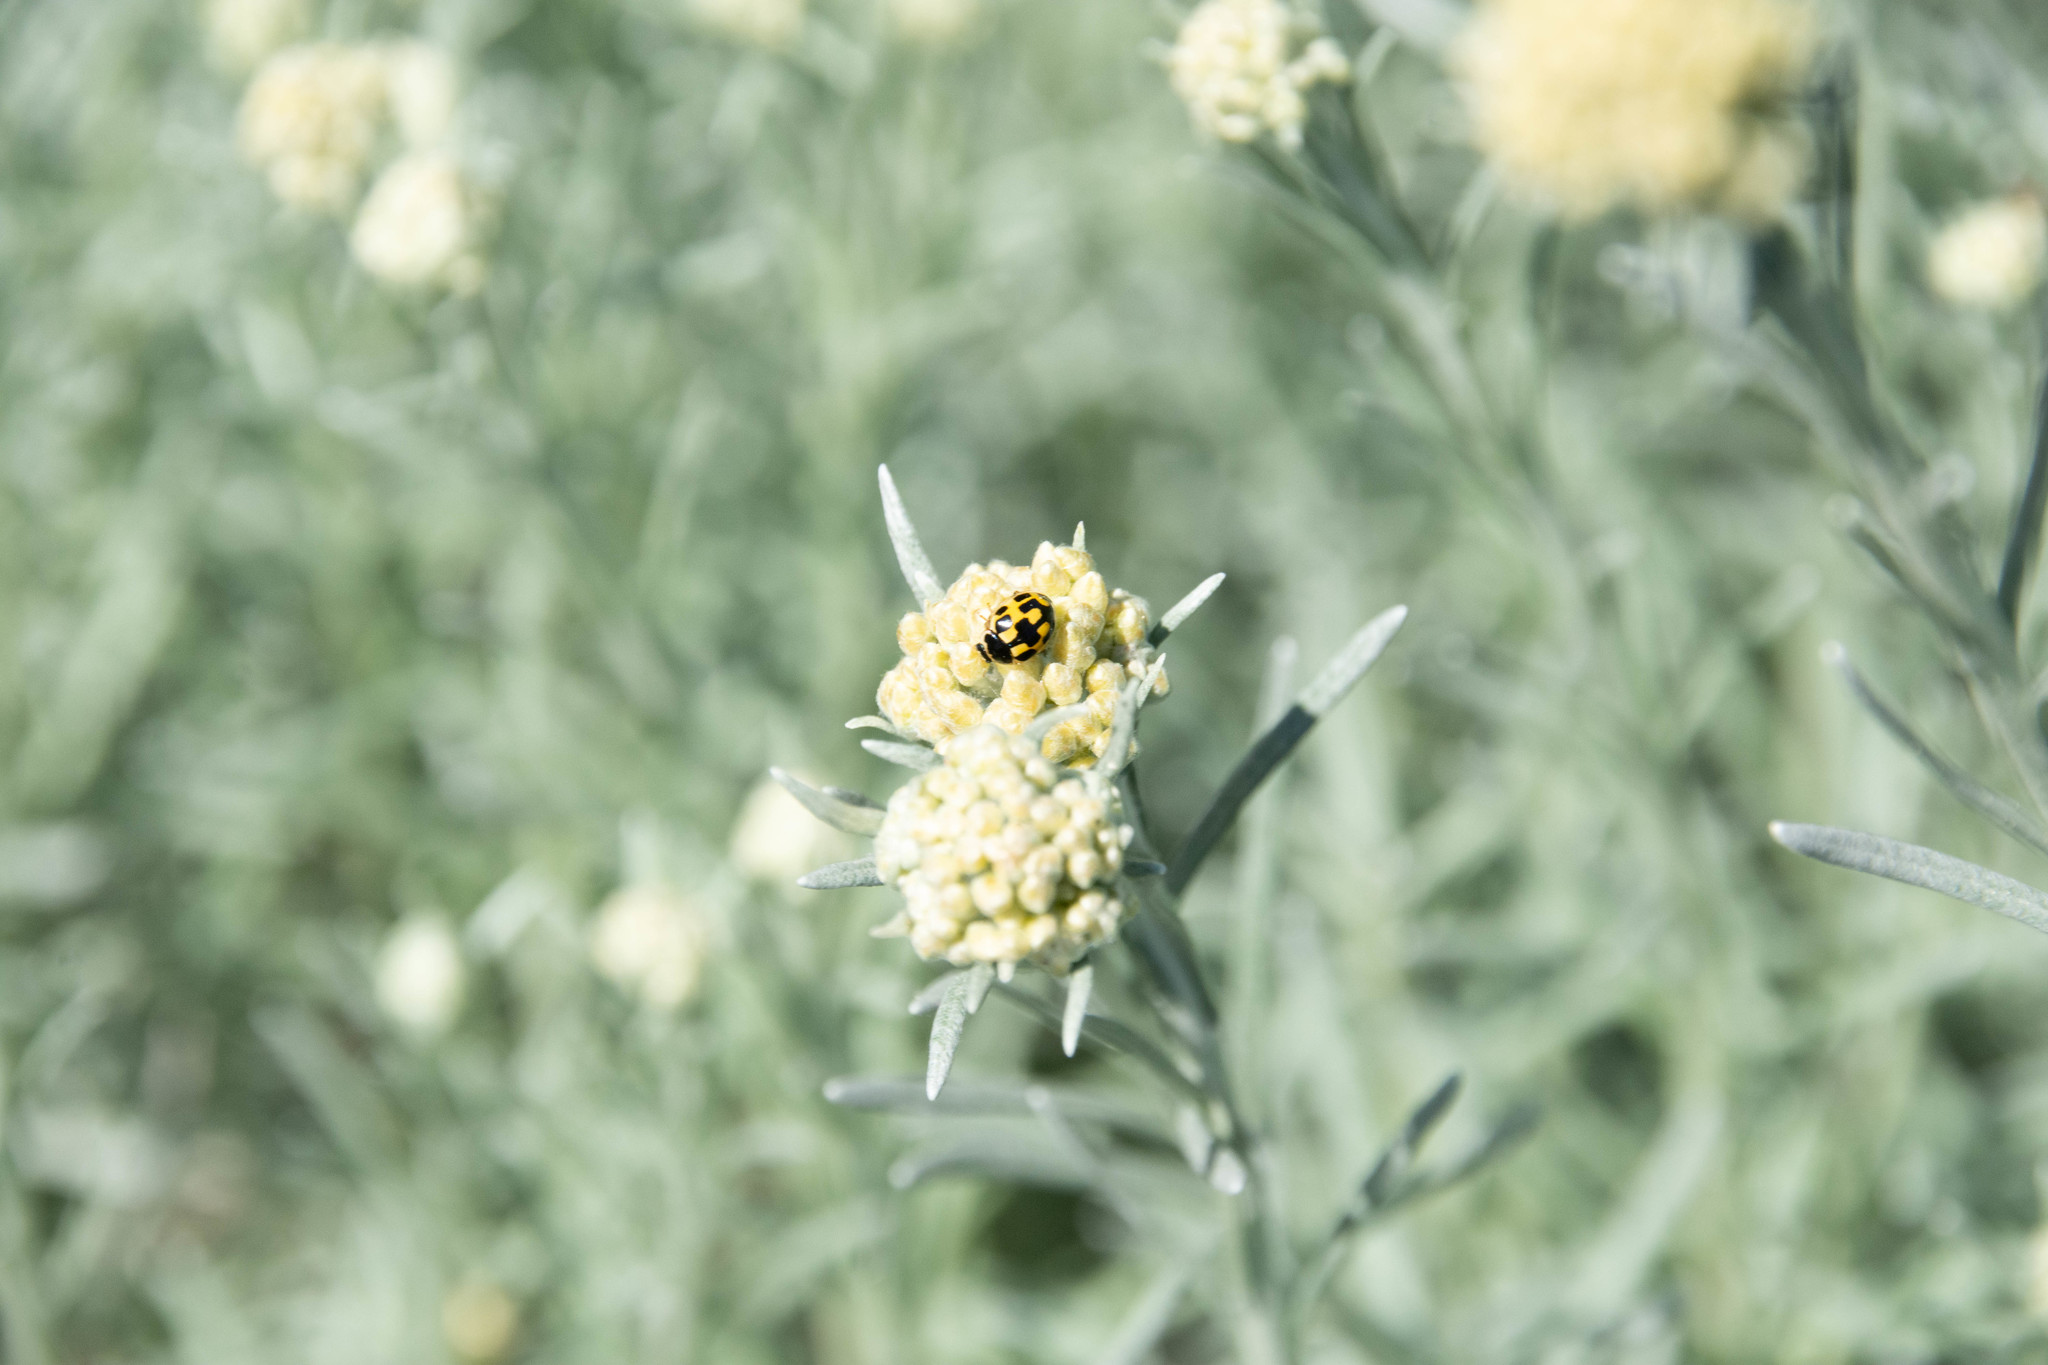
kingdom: Animalia
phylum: Arthropoda
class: Insecta
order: Coleoptera
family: Coccinellidae
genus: Propylaea
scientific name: Propylaea quatuordecimpunctata
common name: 14-spotted ladybird beetle
